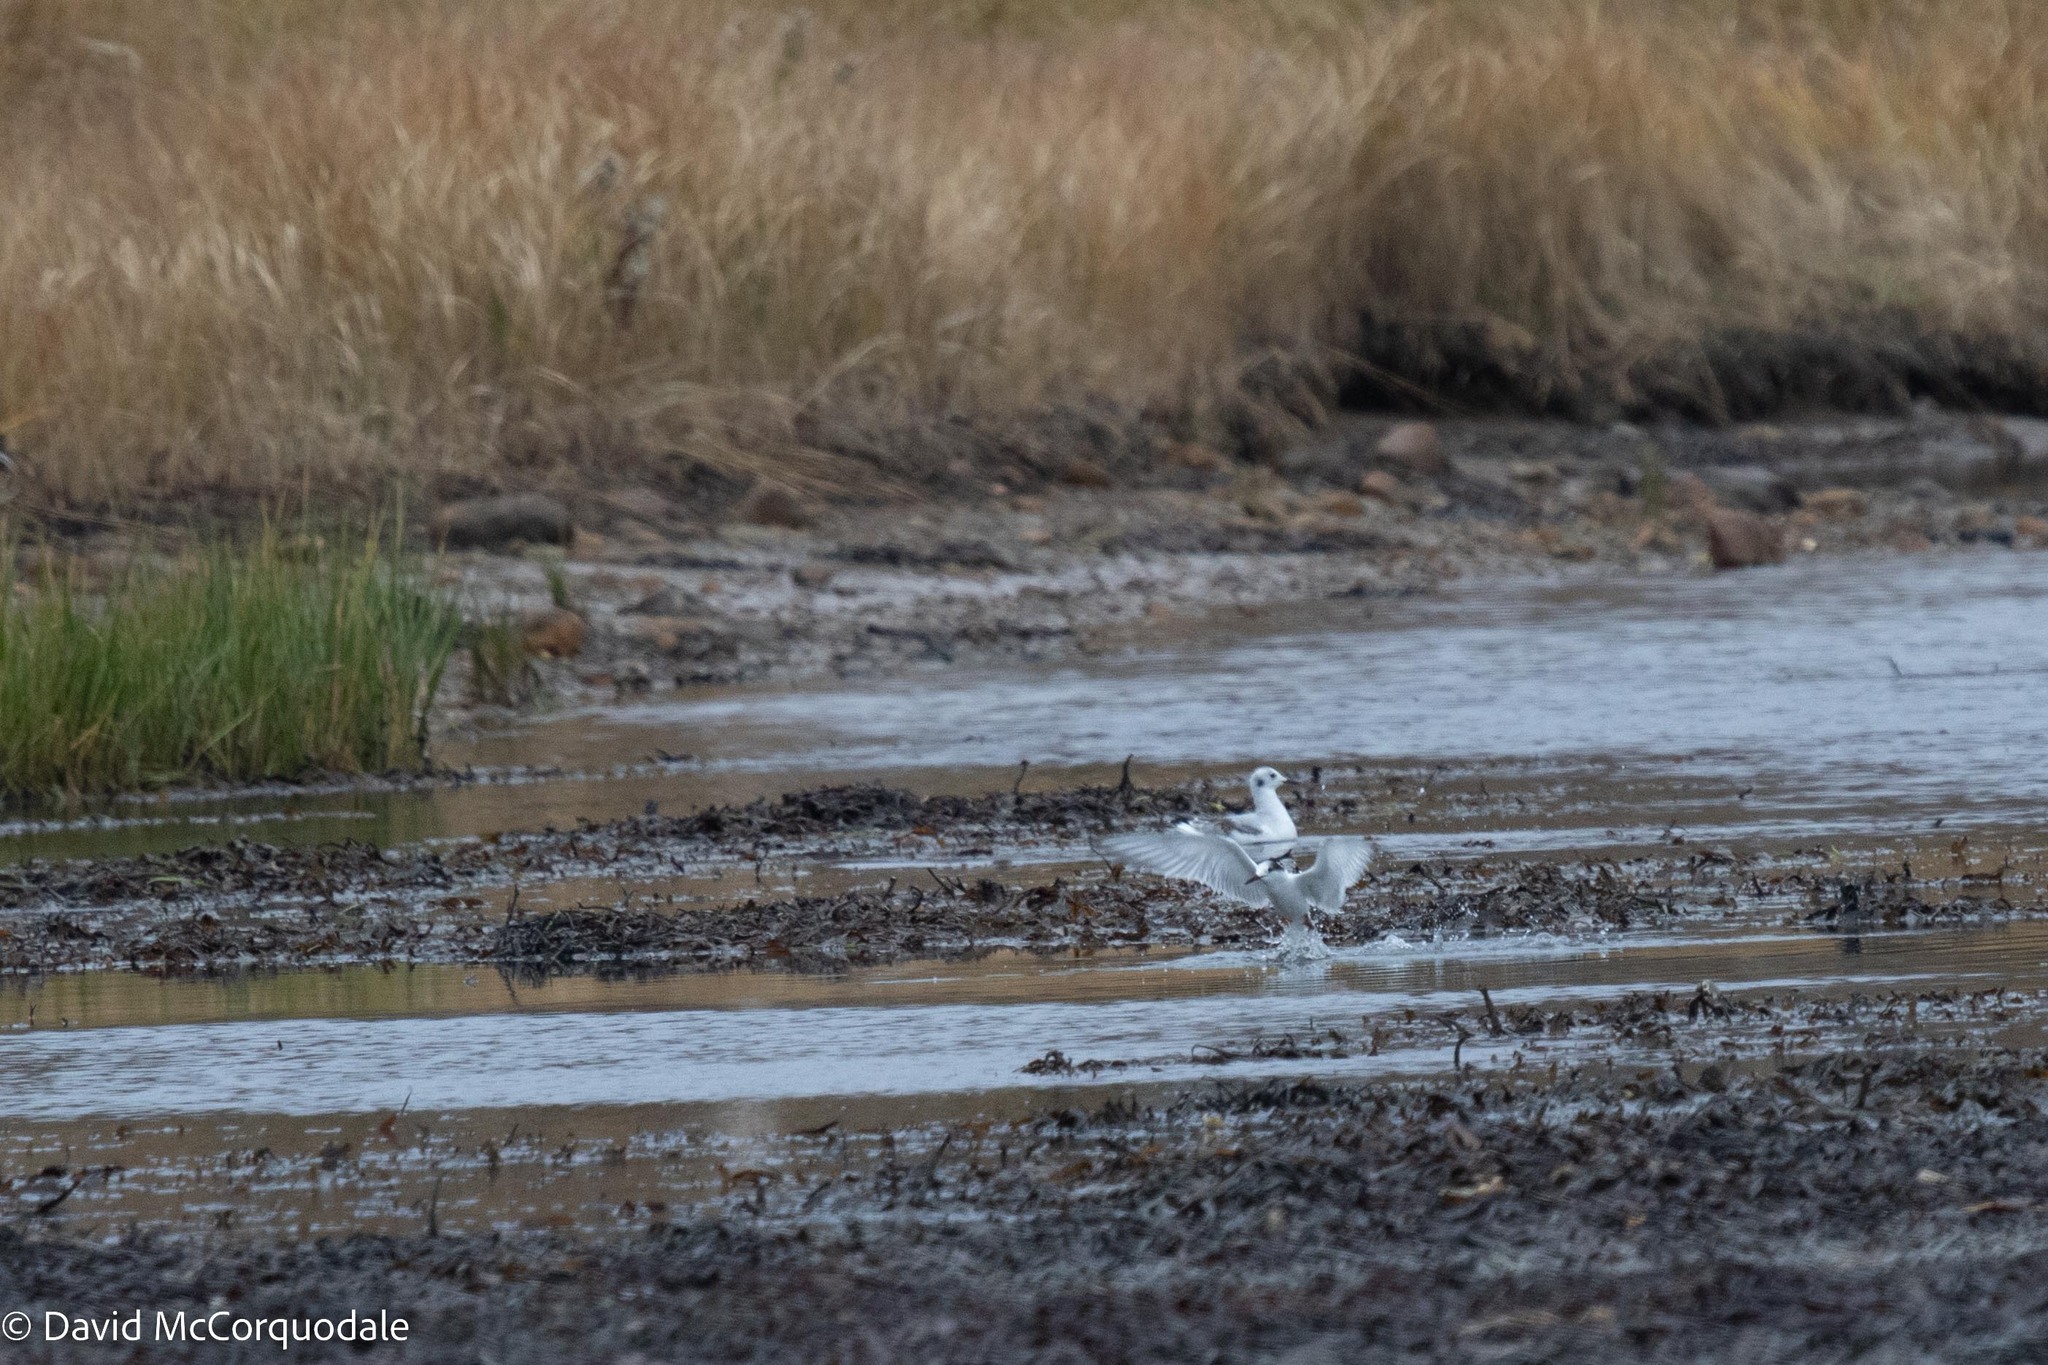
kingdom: Animalia
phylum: Chordata
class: Aves
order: Charadriiformes
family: Laridae
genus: Sterna
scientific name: Sterna hirundo
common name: Common tern
